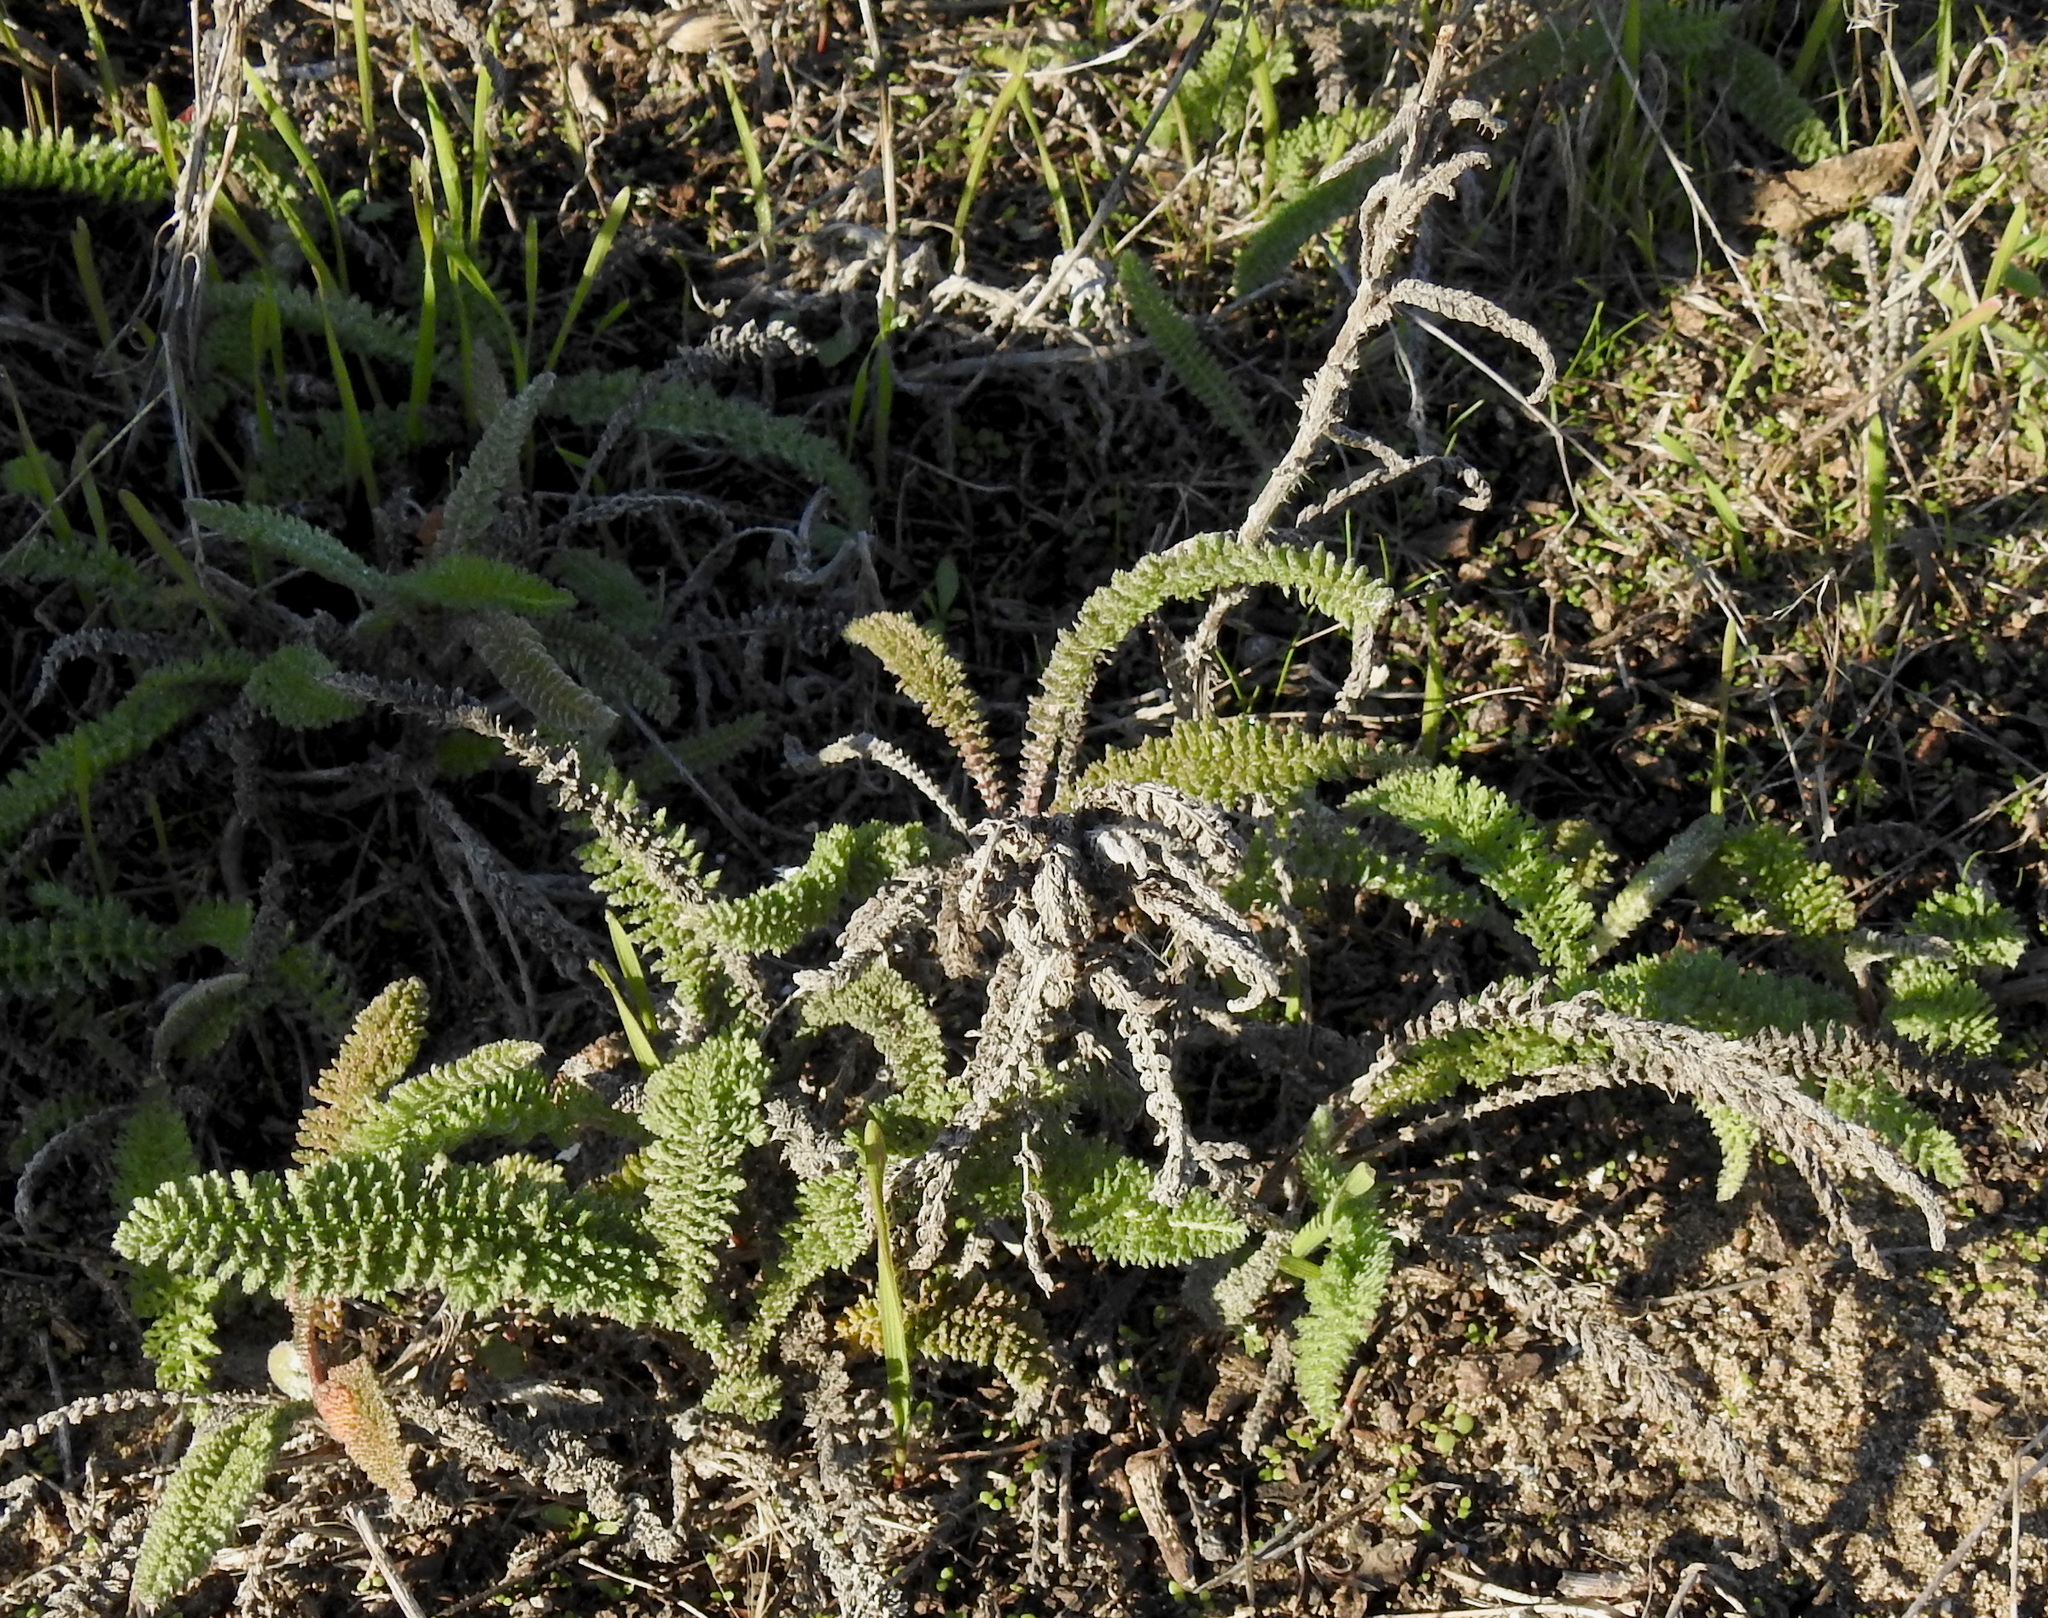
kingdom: Plantae
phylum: Tracheophyta
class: Magnoliopsida
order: Asterales
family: Asteraceae
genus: Achillea
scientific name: Achillea millefolium
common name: Yarrow
